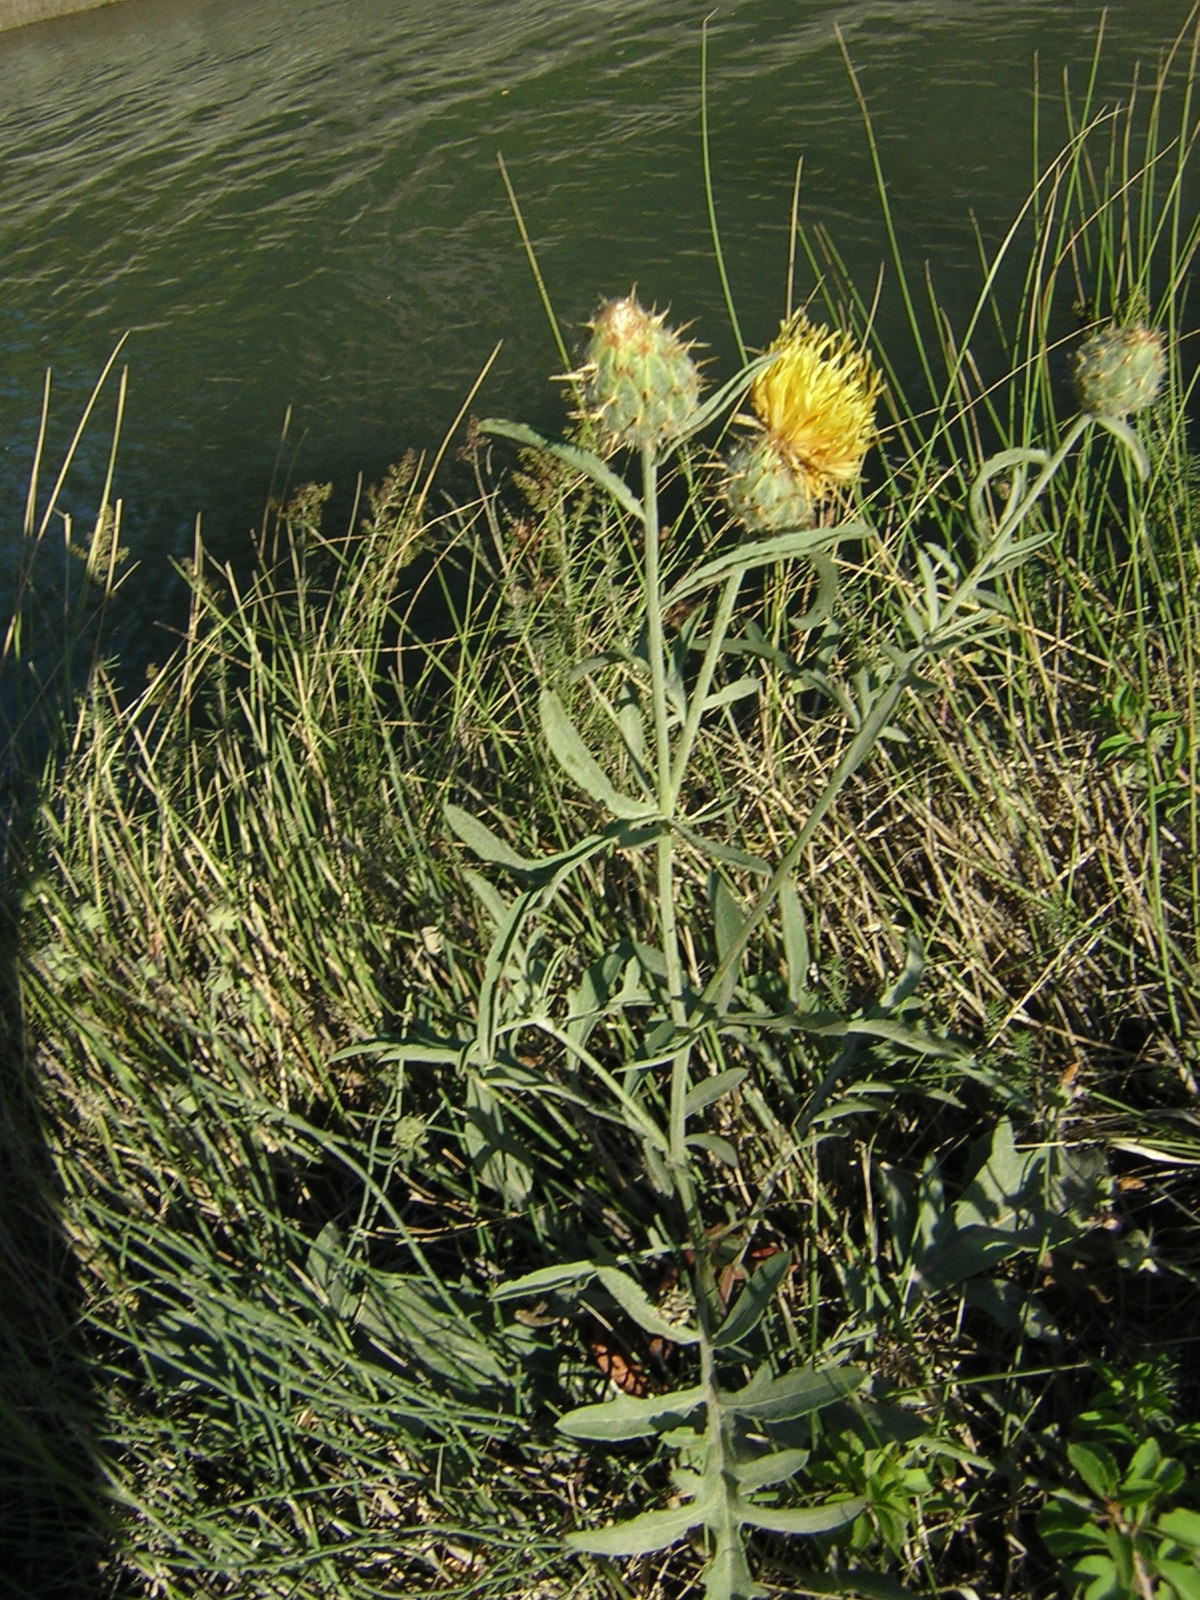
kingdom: Plantae
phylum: Tracheophyta
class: Magnoliopsida
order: Asterales
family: Asteraceae
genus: Centaurea
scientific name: Centaurea collina
